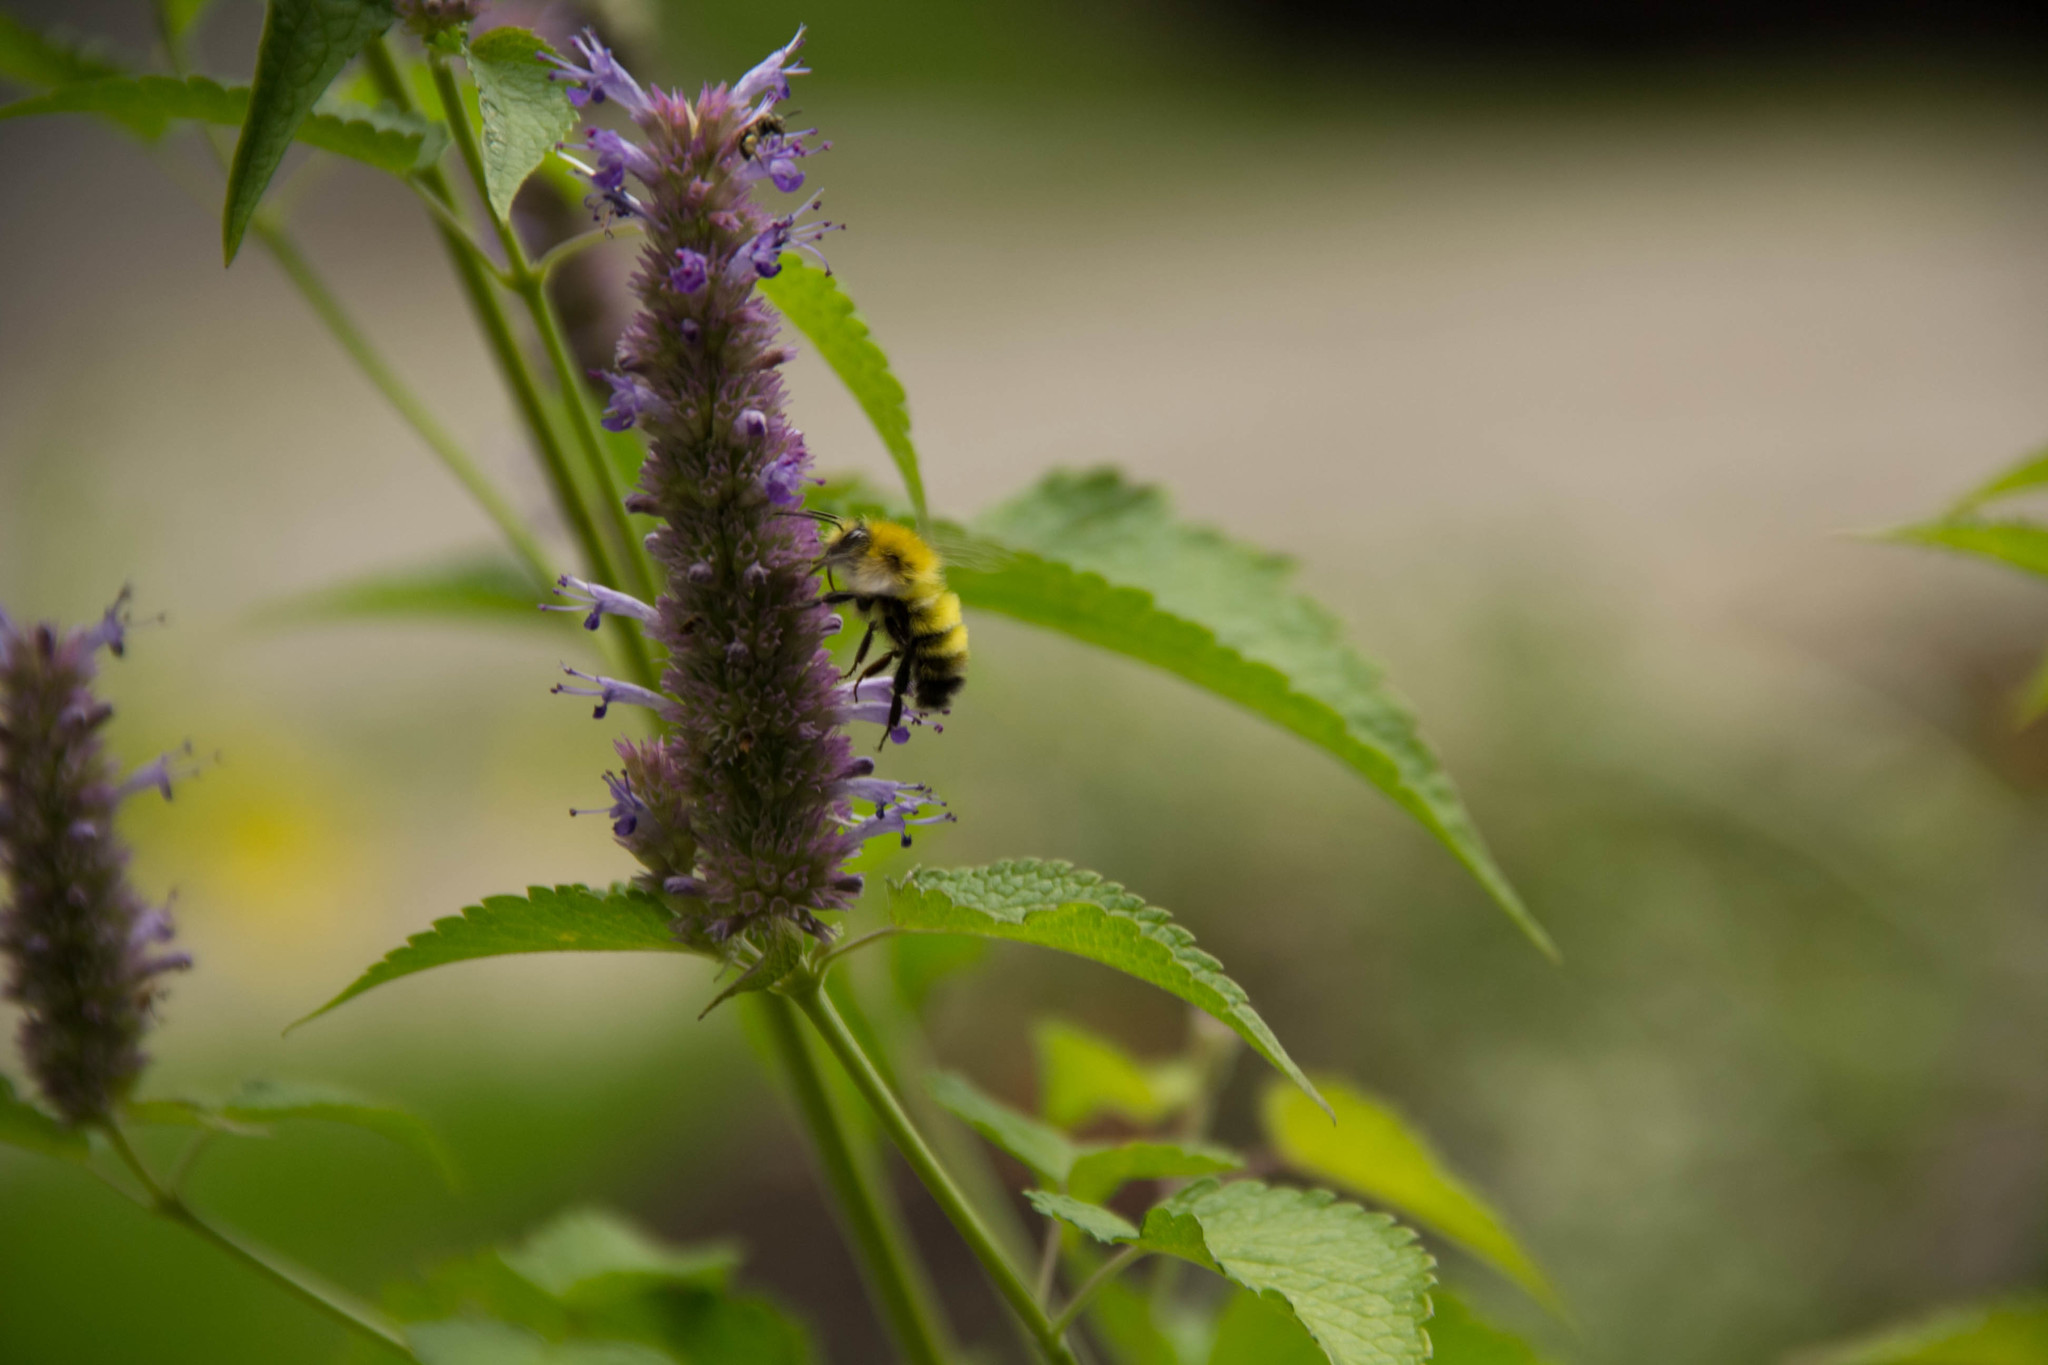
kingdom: Animalia
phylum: Arthropoda
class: Insecta
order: Hymenoptera
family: Apidae
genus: Bombus
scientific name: Bombus perplexus
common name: Confusing bumble bee
